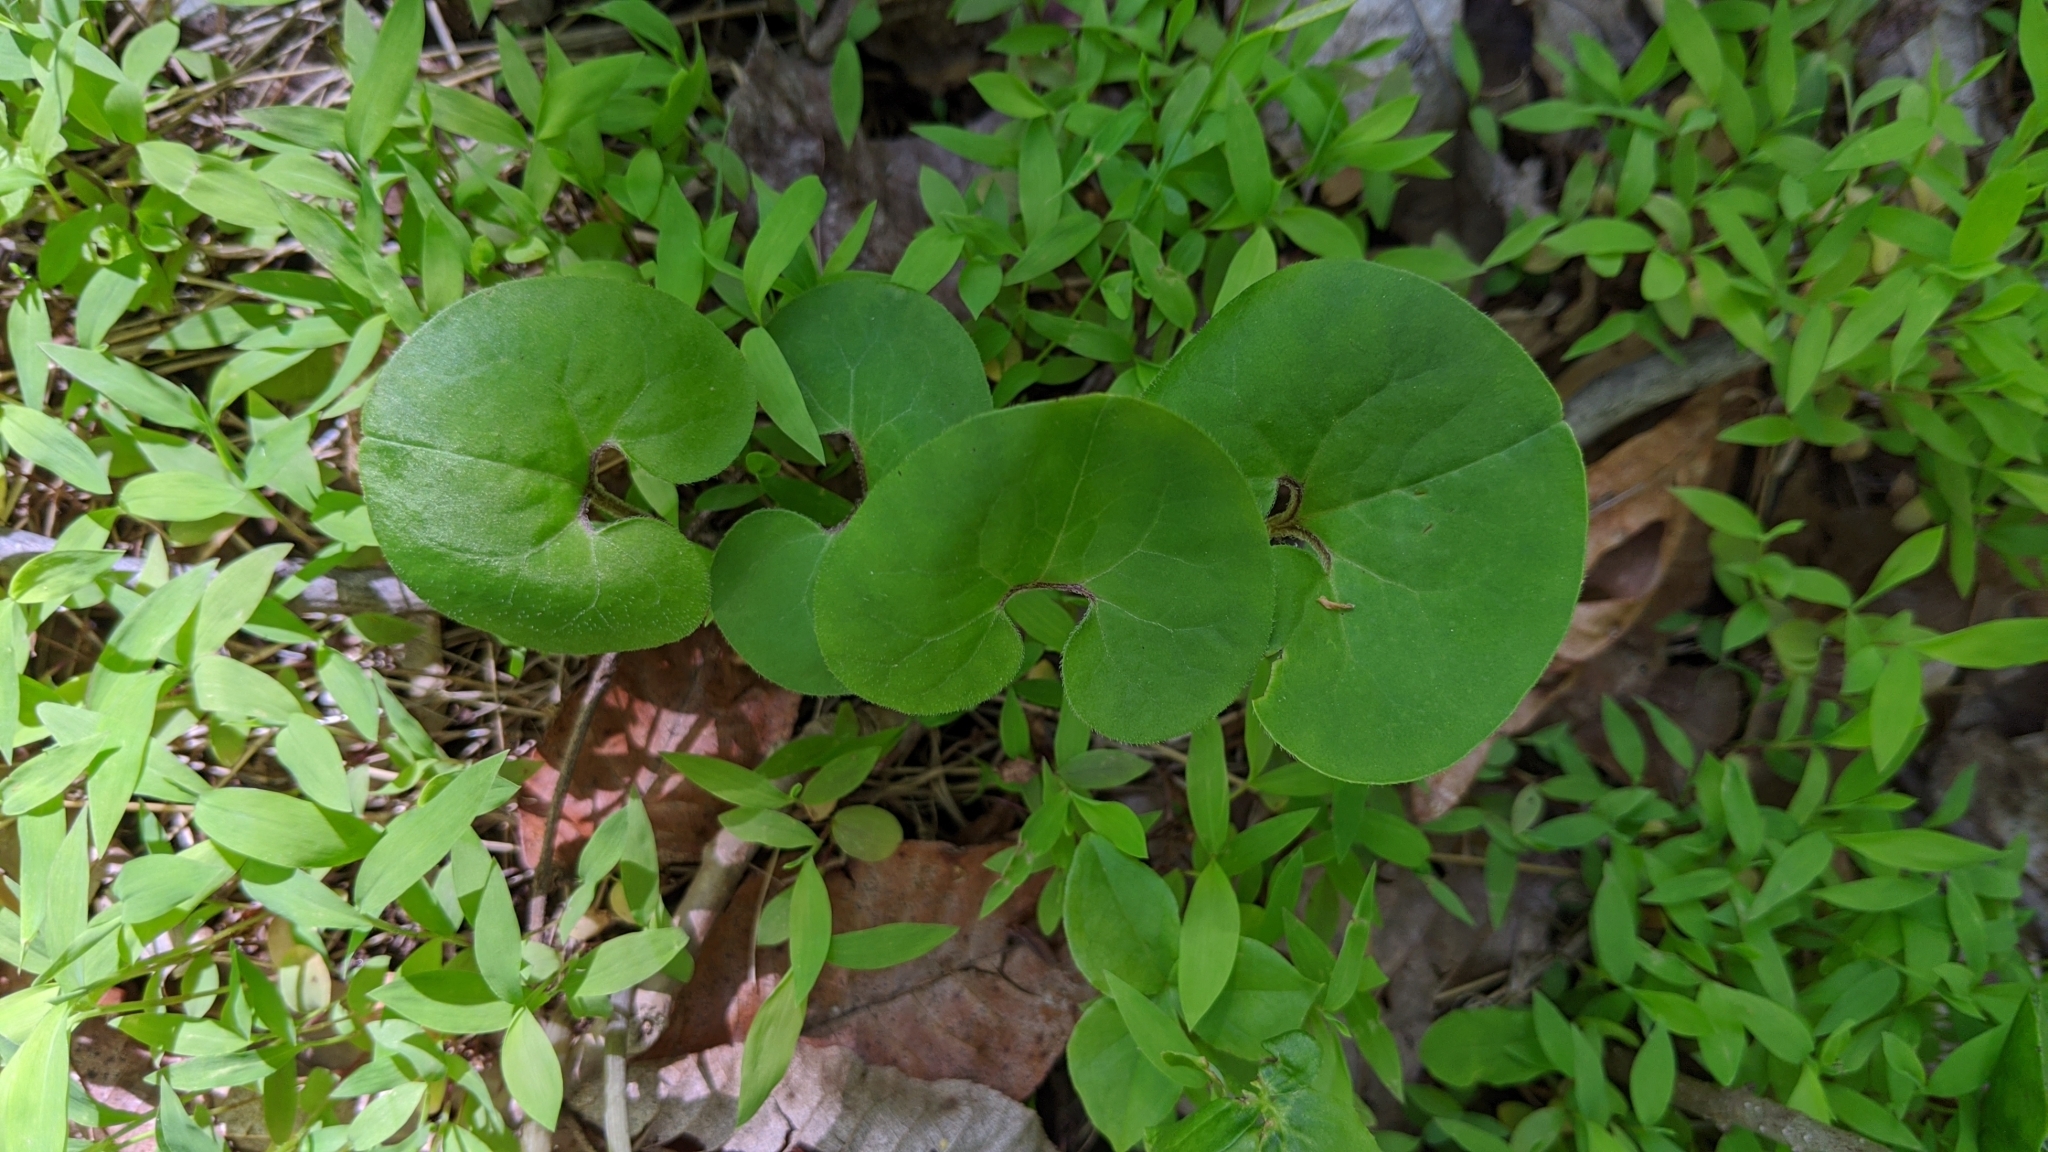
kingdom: Plantae
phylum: Tracheophyta
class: Magnoliopsida
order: Piperales
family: Aristolochiaceae
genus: Asarum
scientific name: Asarum canadense
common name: Wild ginger
